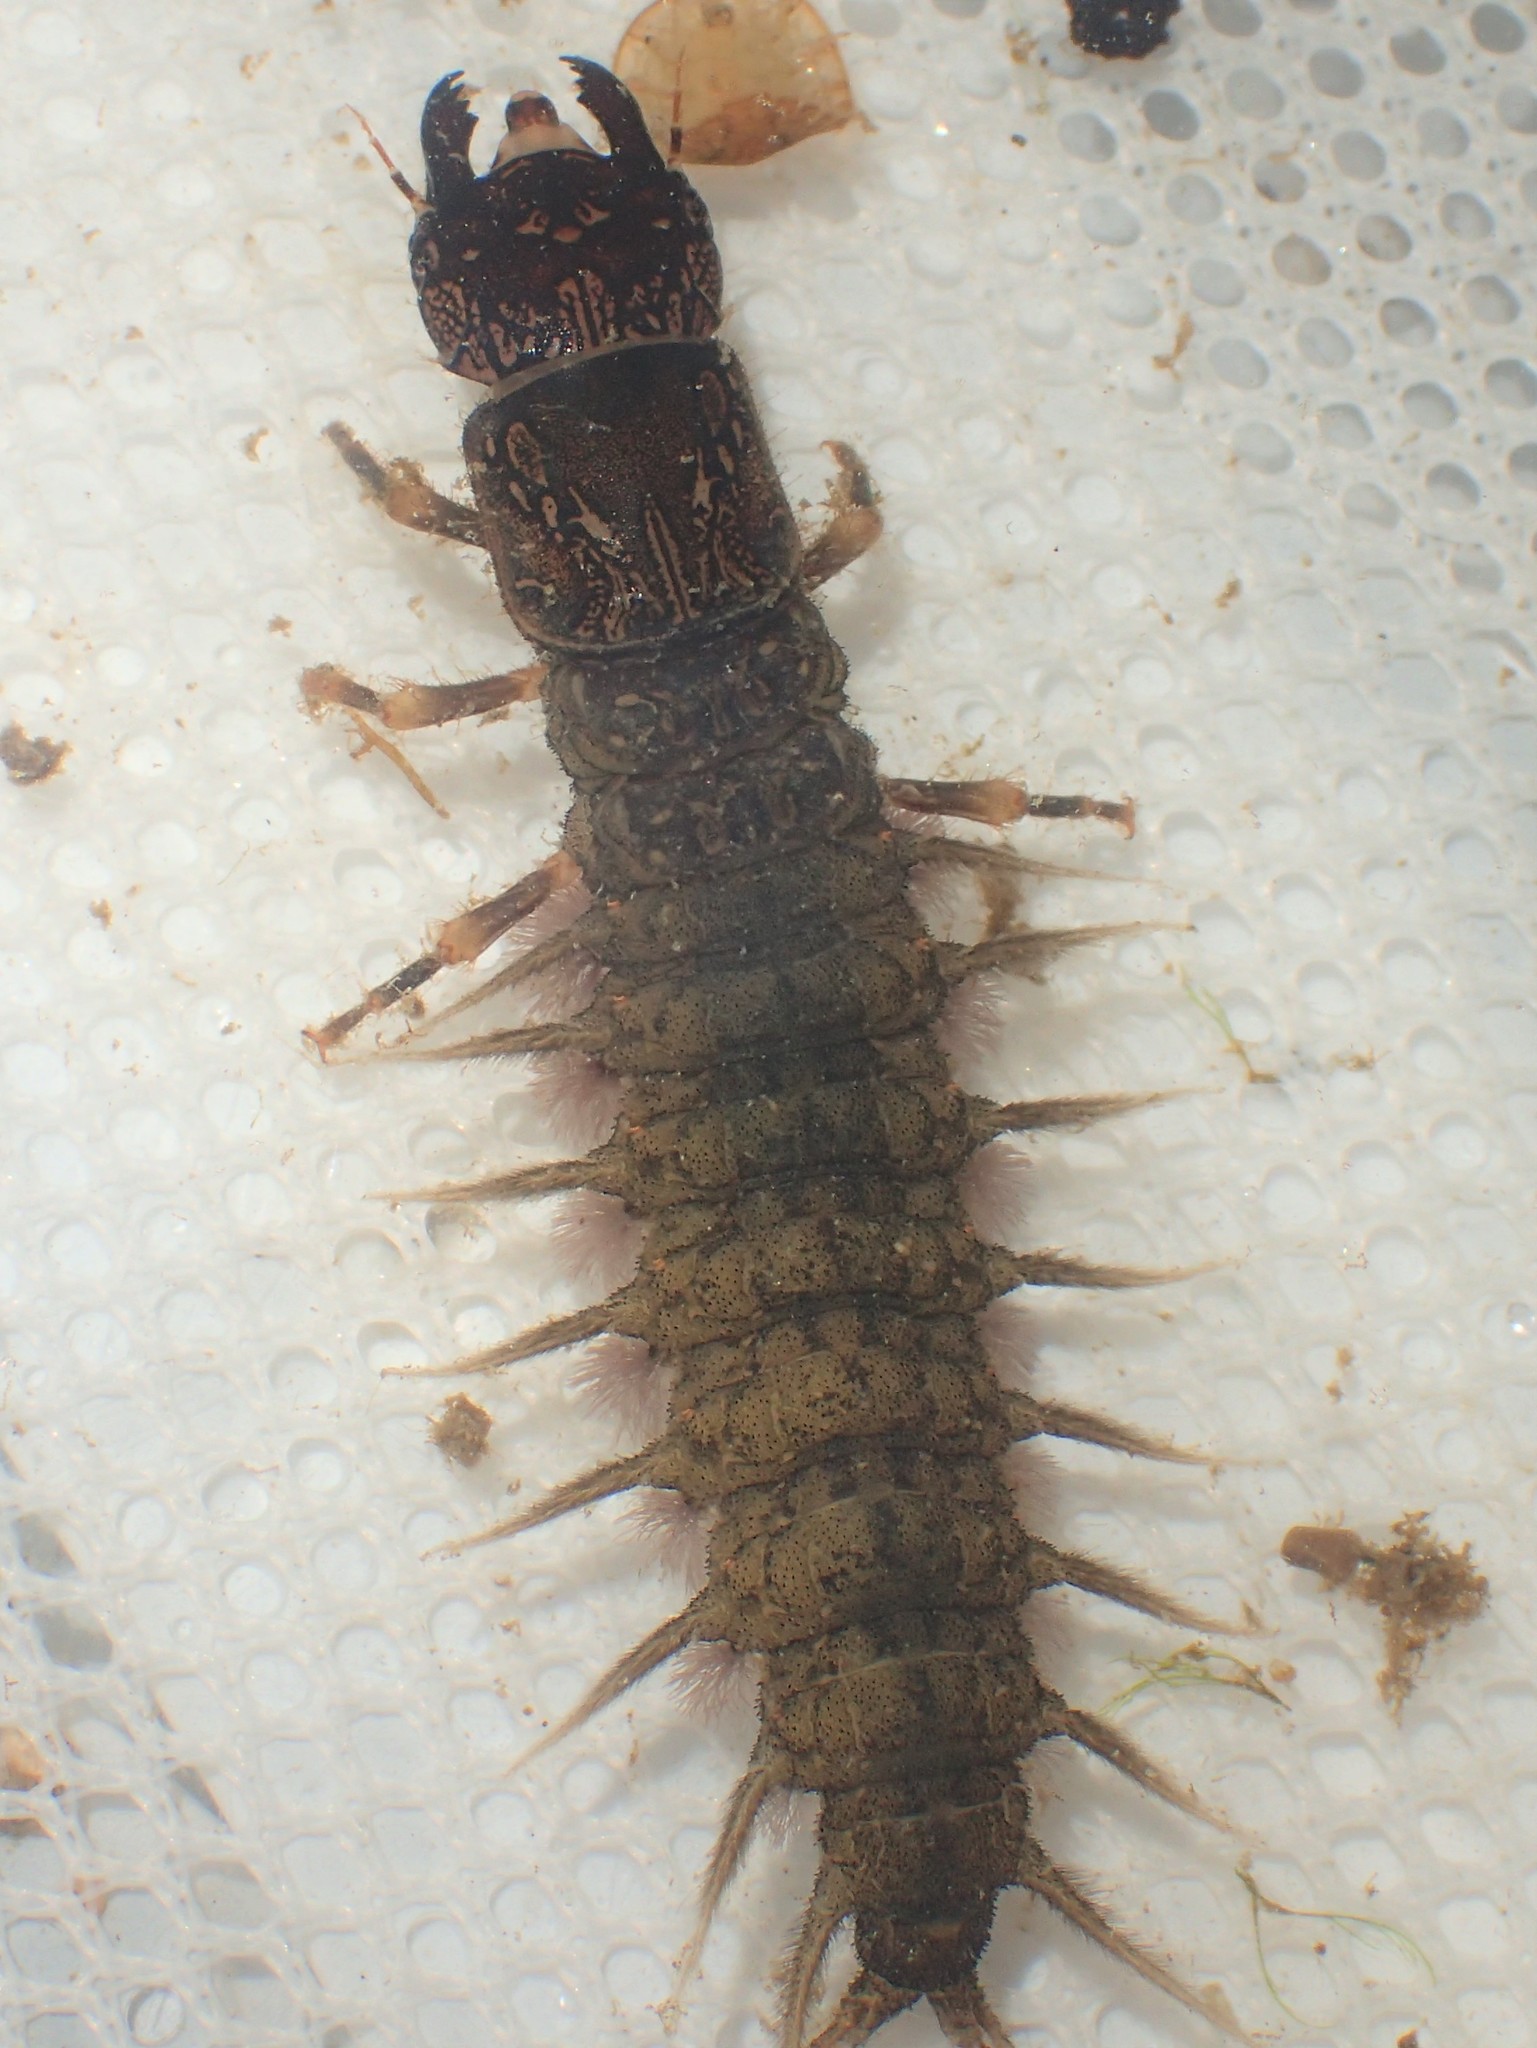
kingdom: Animalia
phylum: Arthropoda
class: Insecta
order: Megaloptera
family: Corydalidae
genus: Corydalus
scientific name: Corydalus cornutus
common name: Dobsonfly
